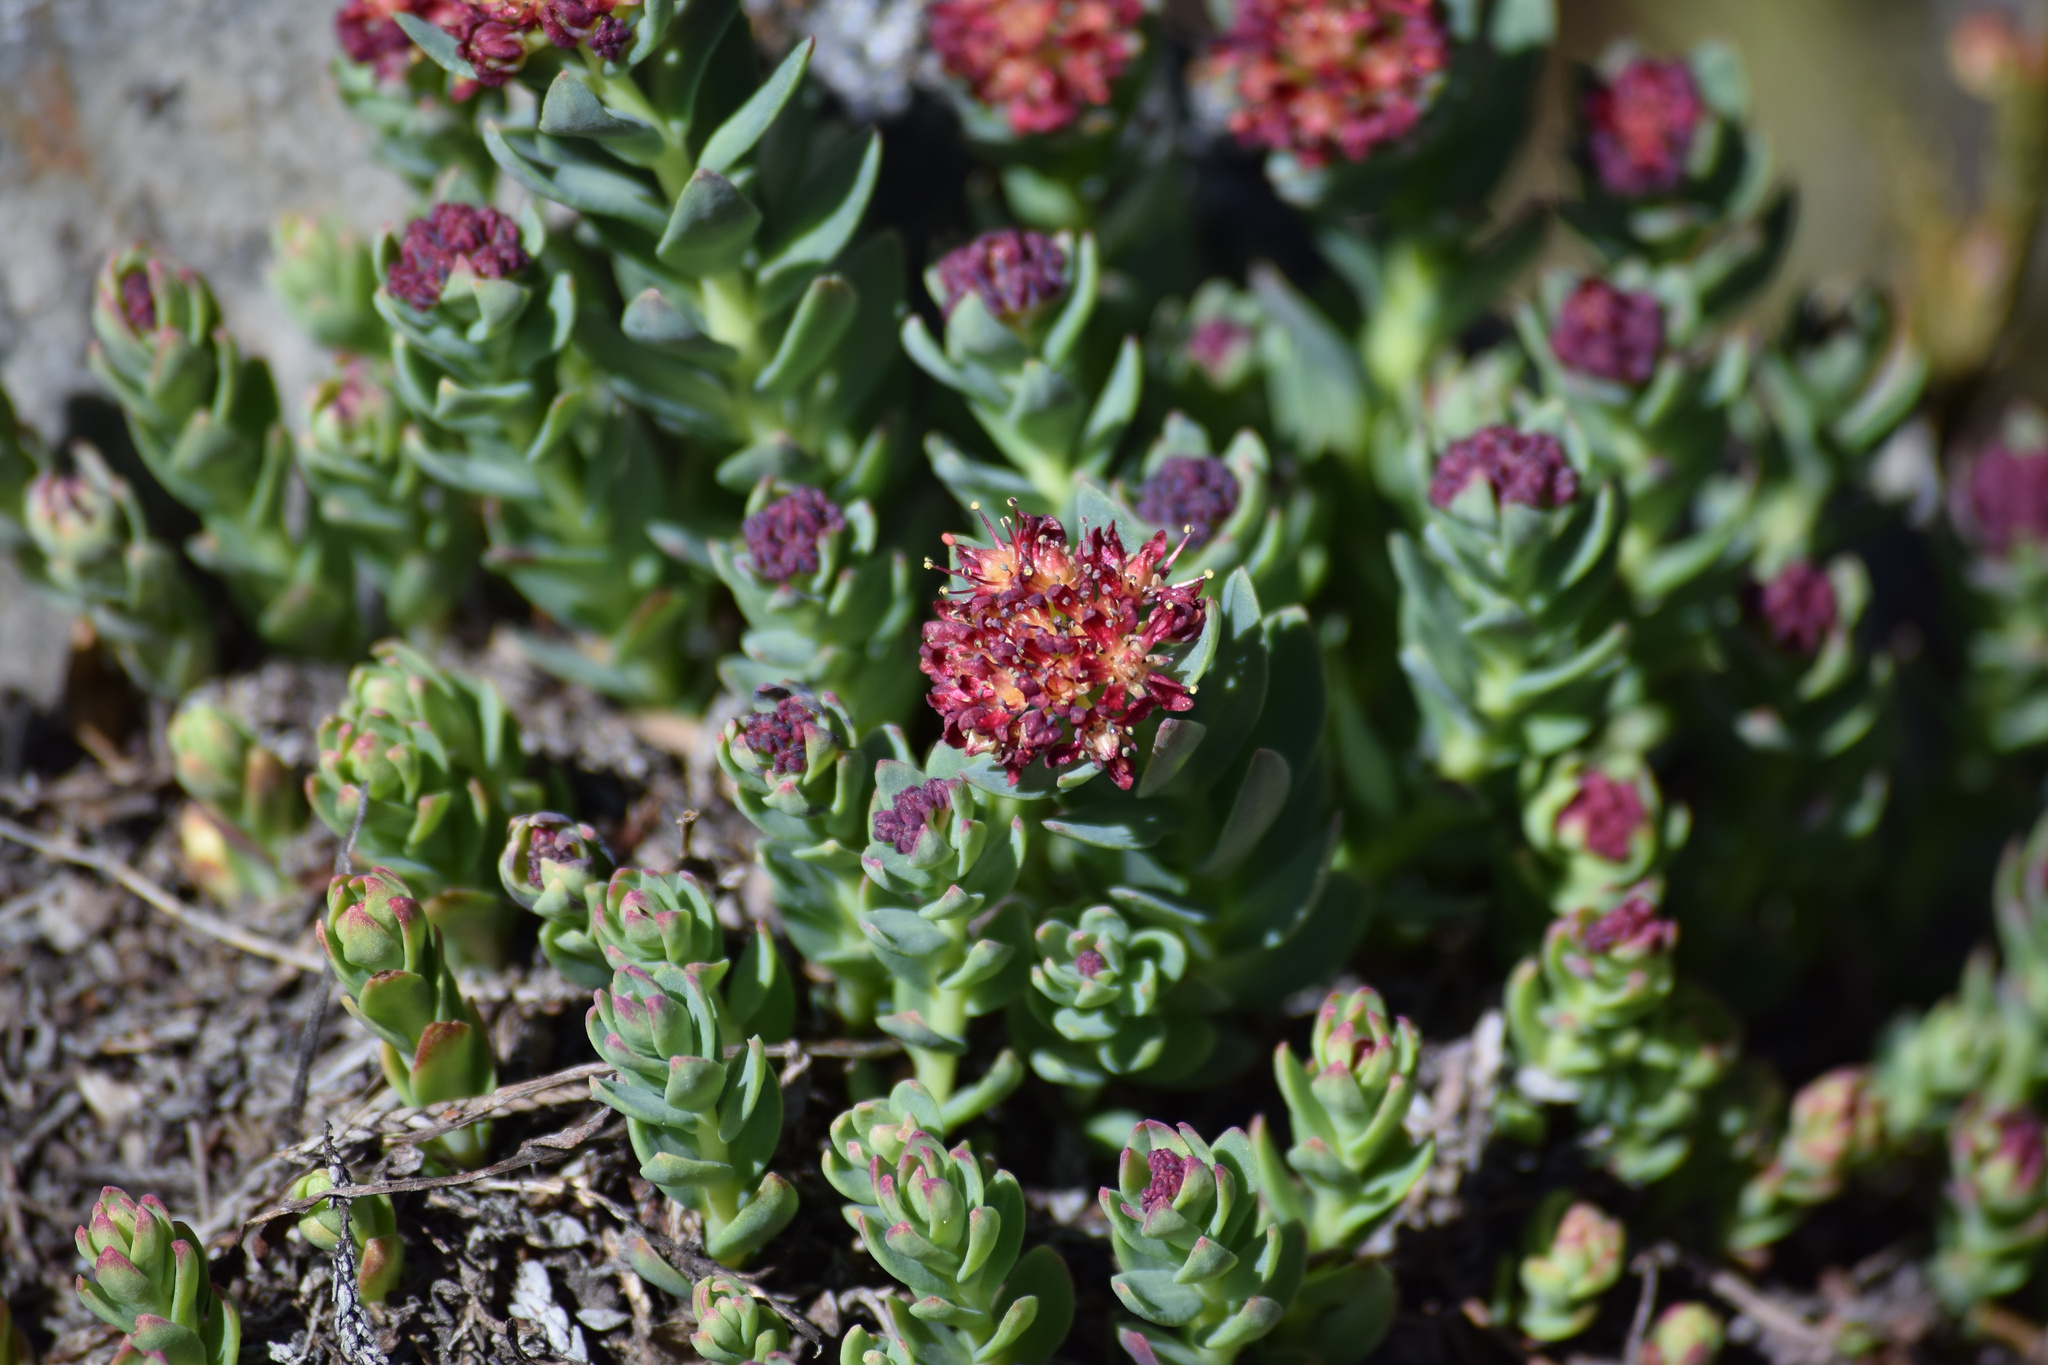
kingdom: Plantae
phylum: Tracheophyta
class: Magnoliopsida
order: Saxifragales
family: Crassulaceae
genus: Rhodiola
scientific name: Rhodiola integrifolia
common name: Western roseroot
